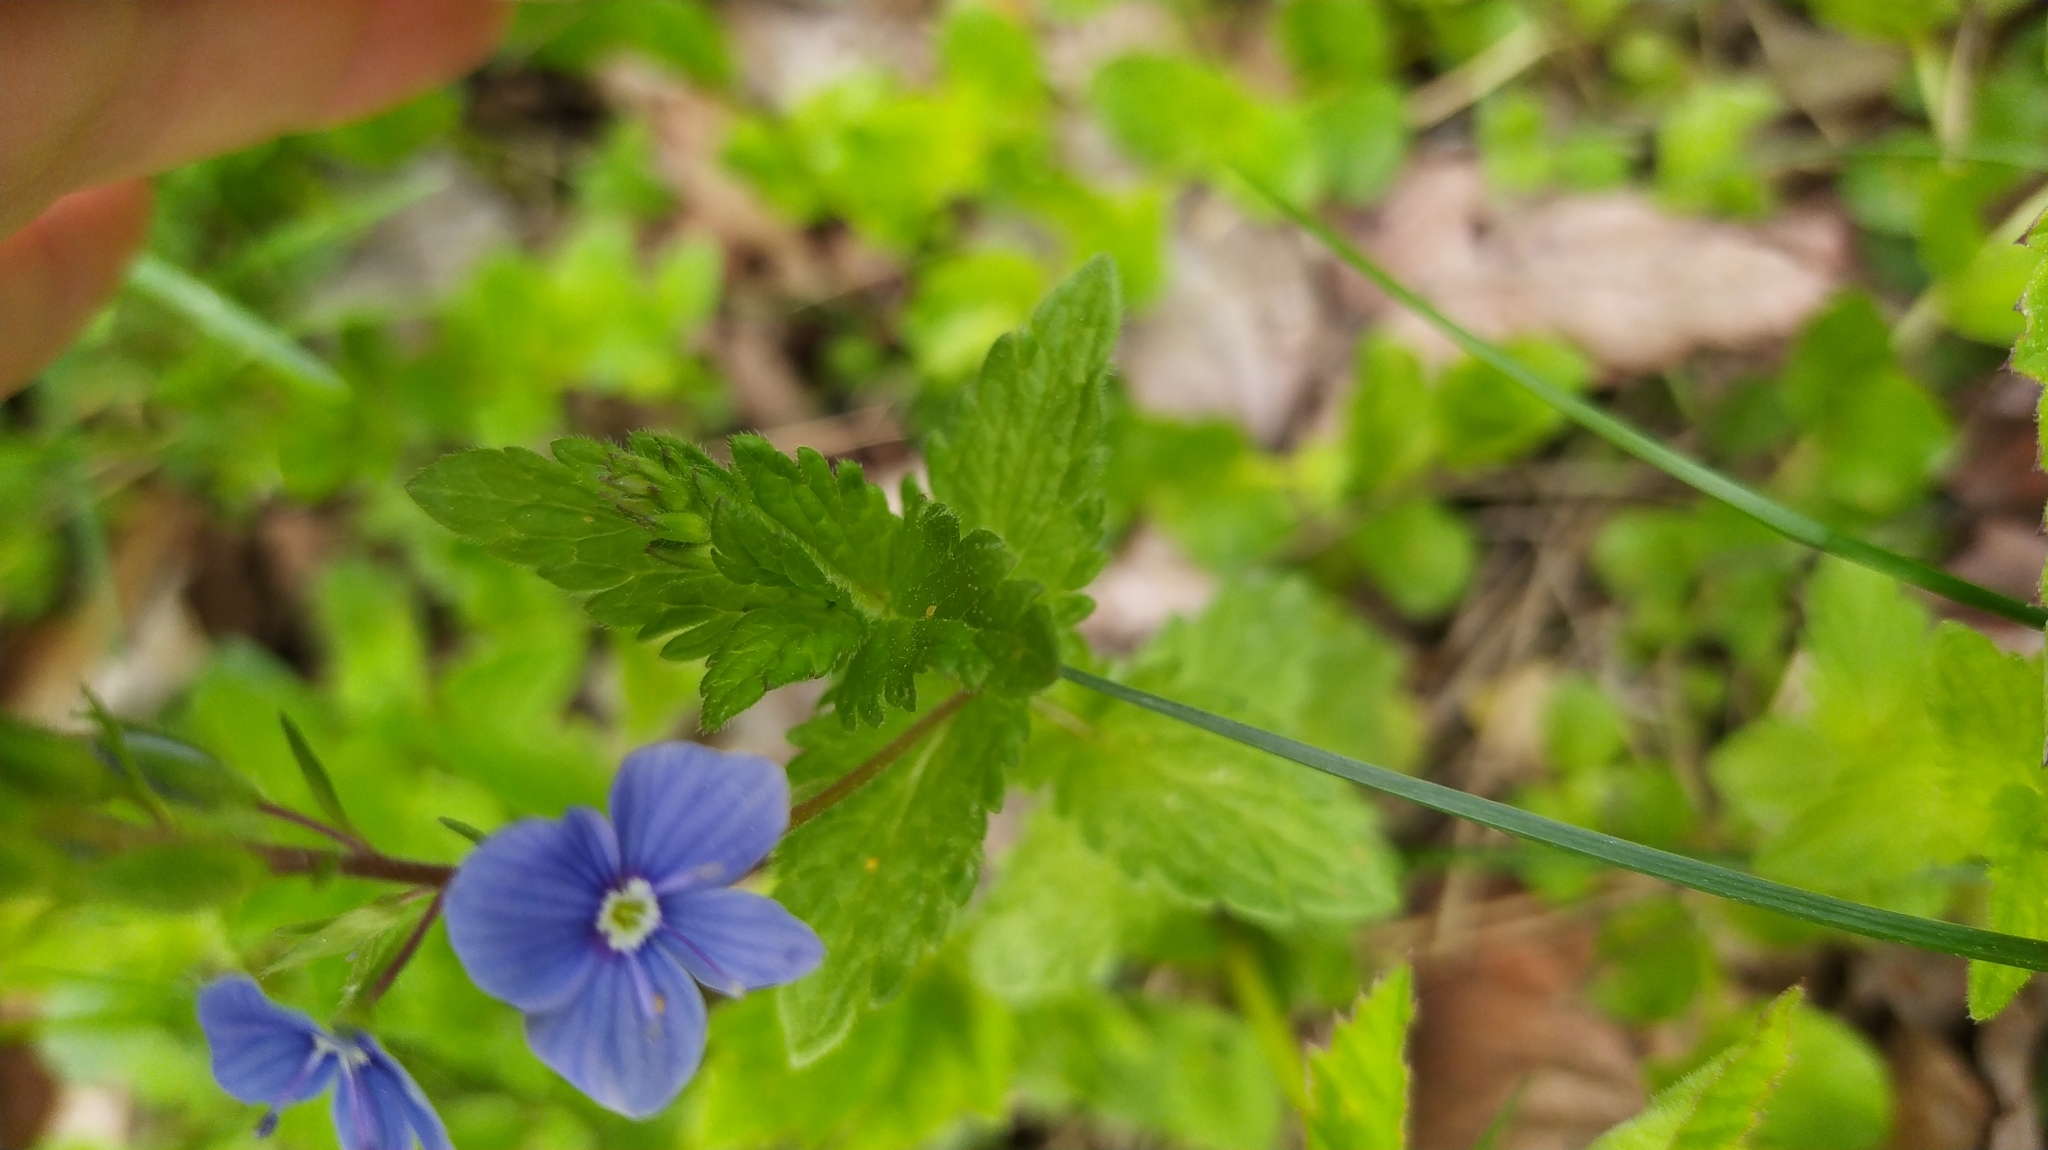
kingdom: Plantae
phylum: Tracheophyta
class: Magnoliopsida
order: Lamiales
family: Plantaginaceae
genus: Veronica
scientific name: Veronica chamaedrys
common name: Germander speedwell
